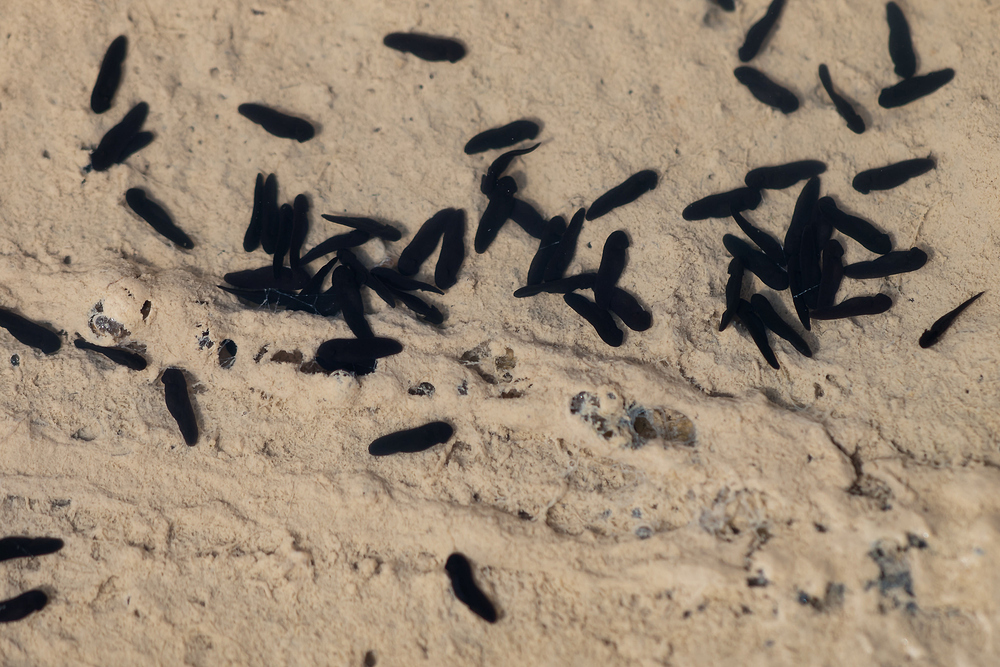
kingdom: Animalia
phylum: Chordata
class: Amphibia
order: Anura
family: Bufonidae
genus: Epidalea
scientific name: Epidalea calamita
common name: Natterjack toad
